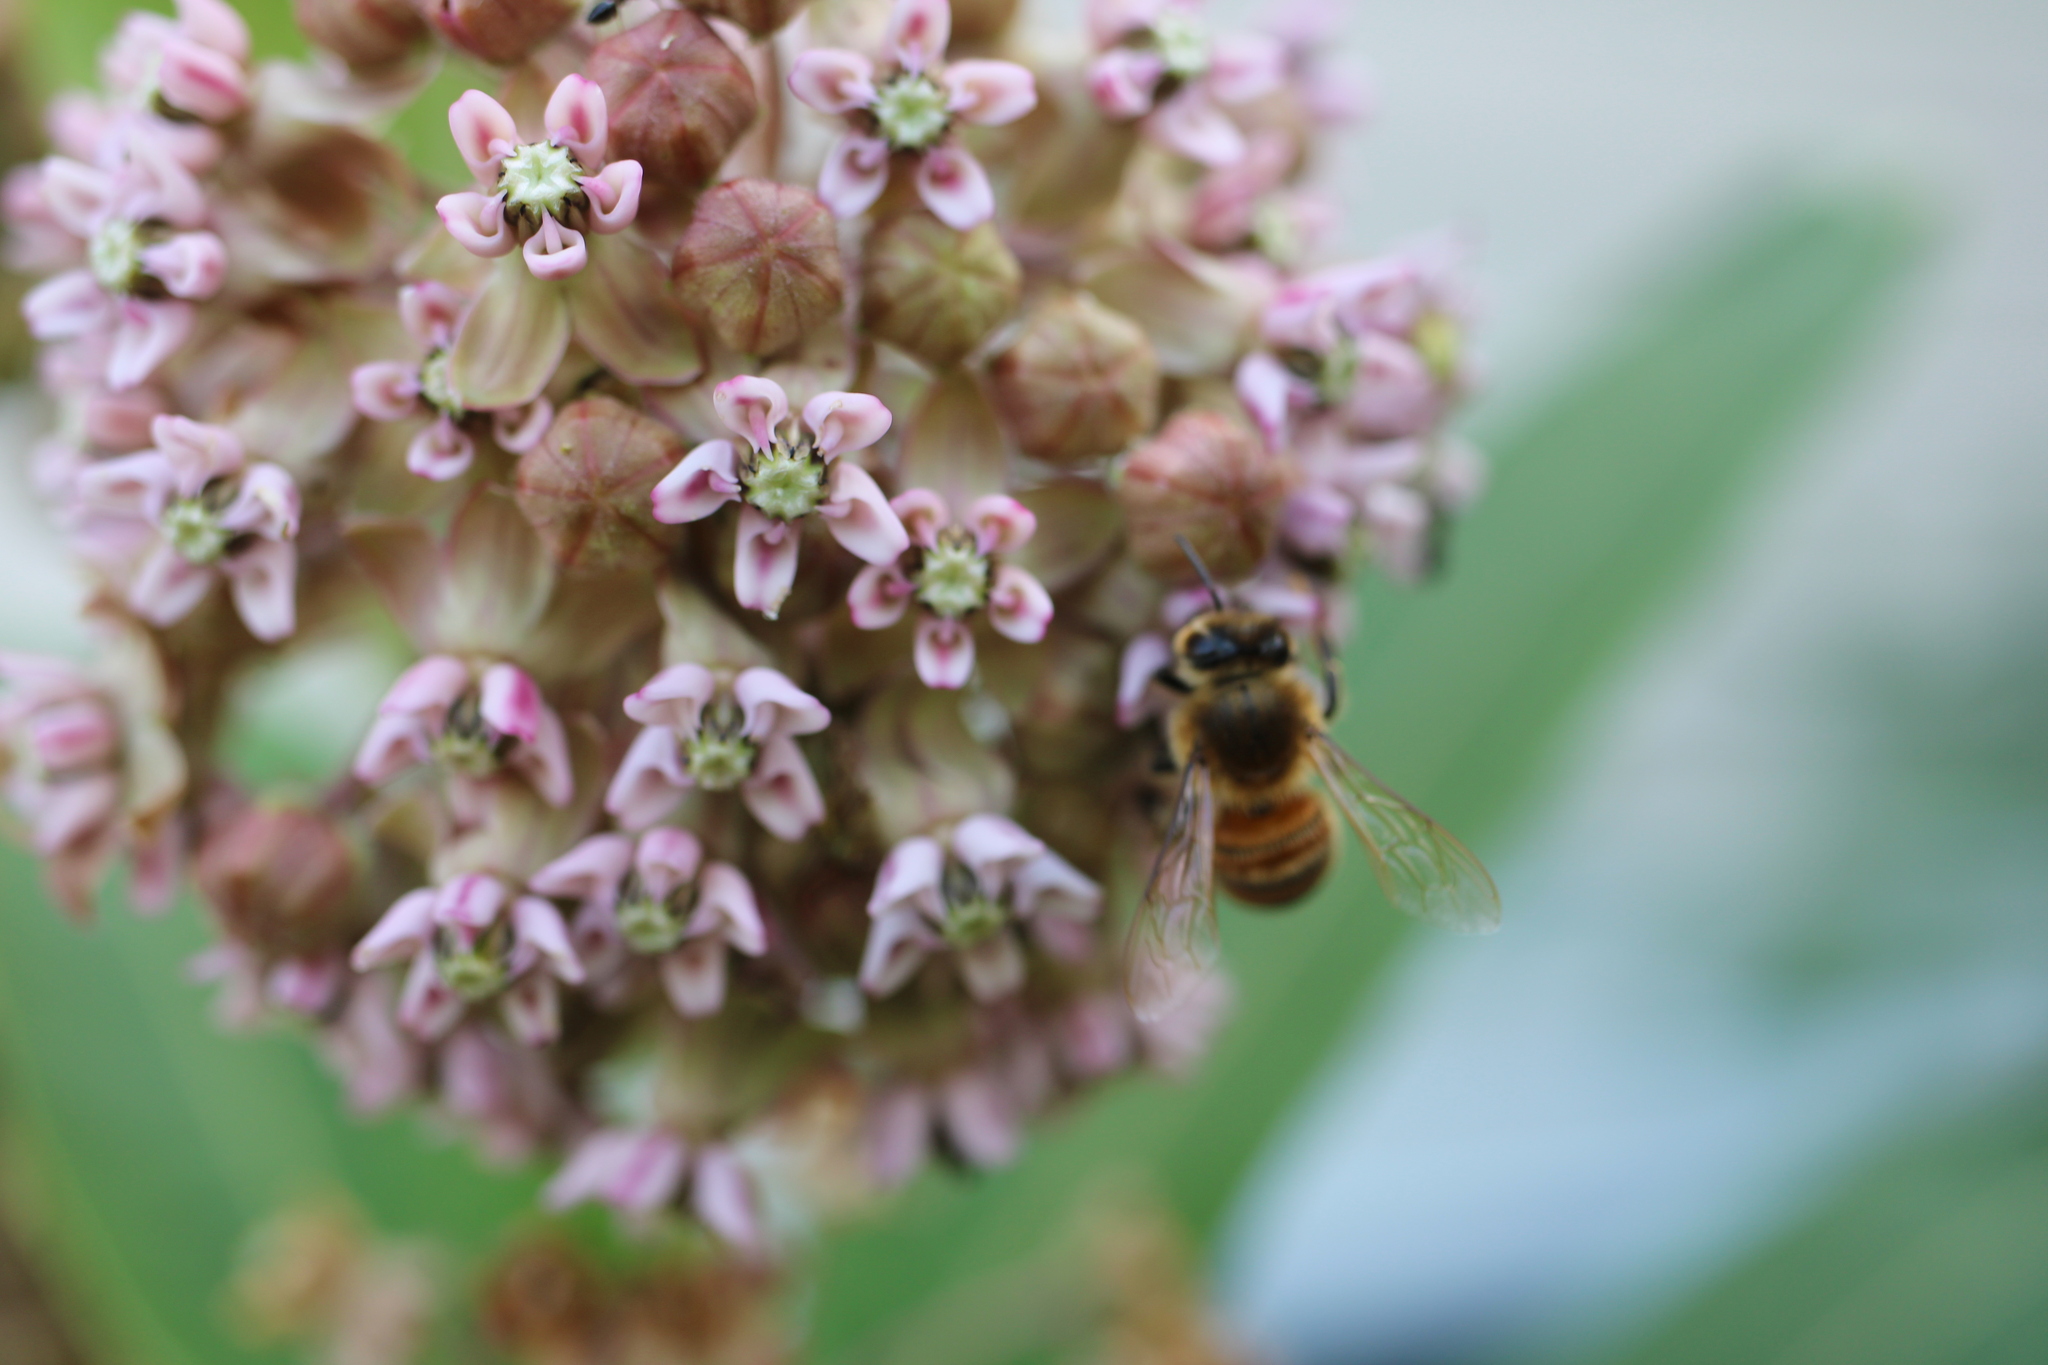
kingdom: Animalia
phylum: Arthropoda
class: Insecta
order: Hymenoptera
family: Apidae
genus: Apis
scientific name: Apis mellifera
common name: Honey bee
